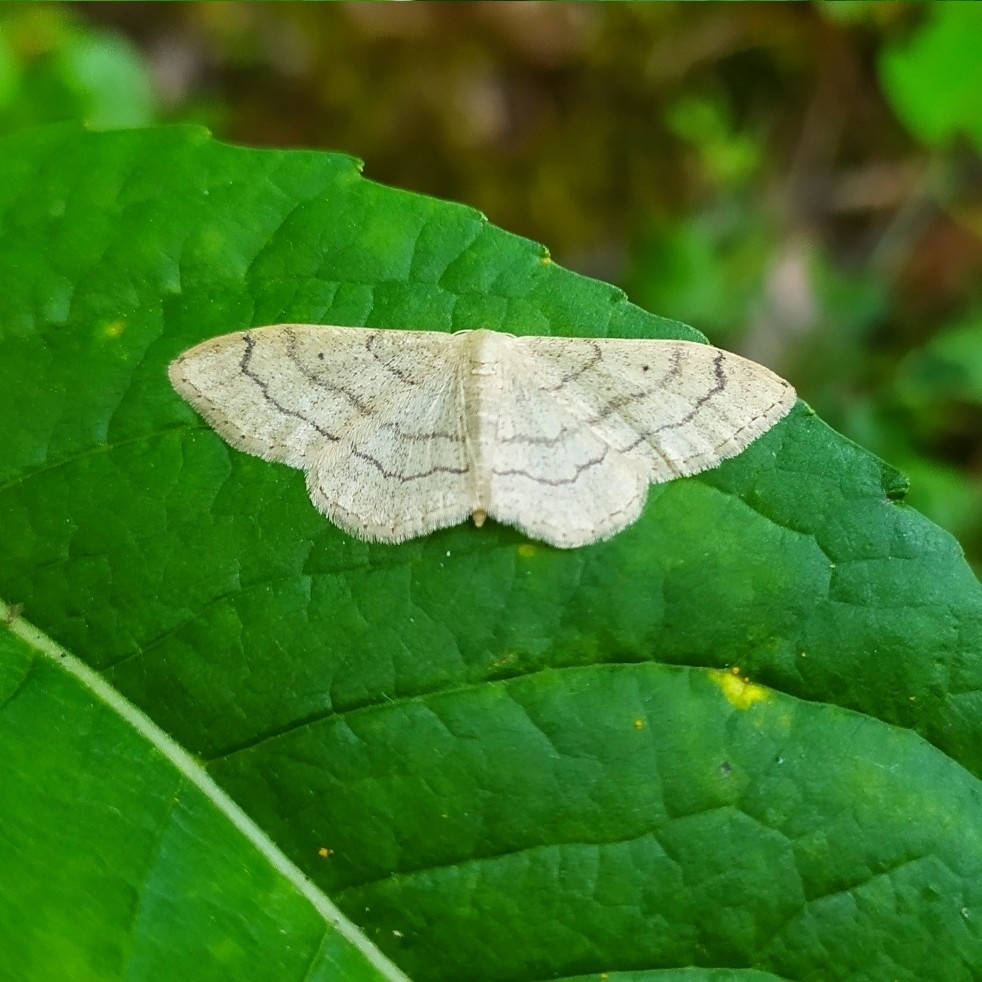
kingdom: Animalia
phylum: Arthropoda
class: Insecta
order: Lepidoptera
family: Geometridae
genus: Idaea
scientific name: Idaea aversata
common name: Riband wave
